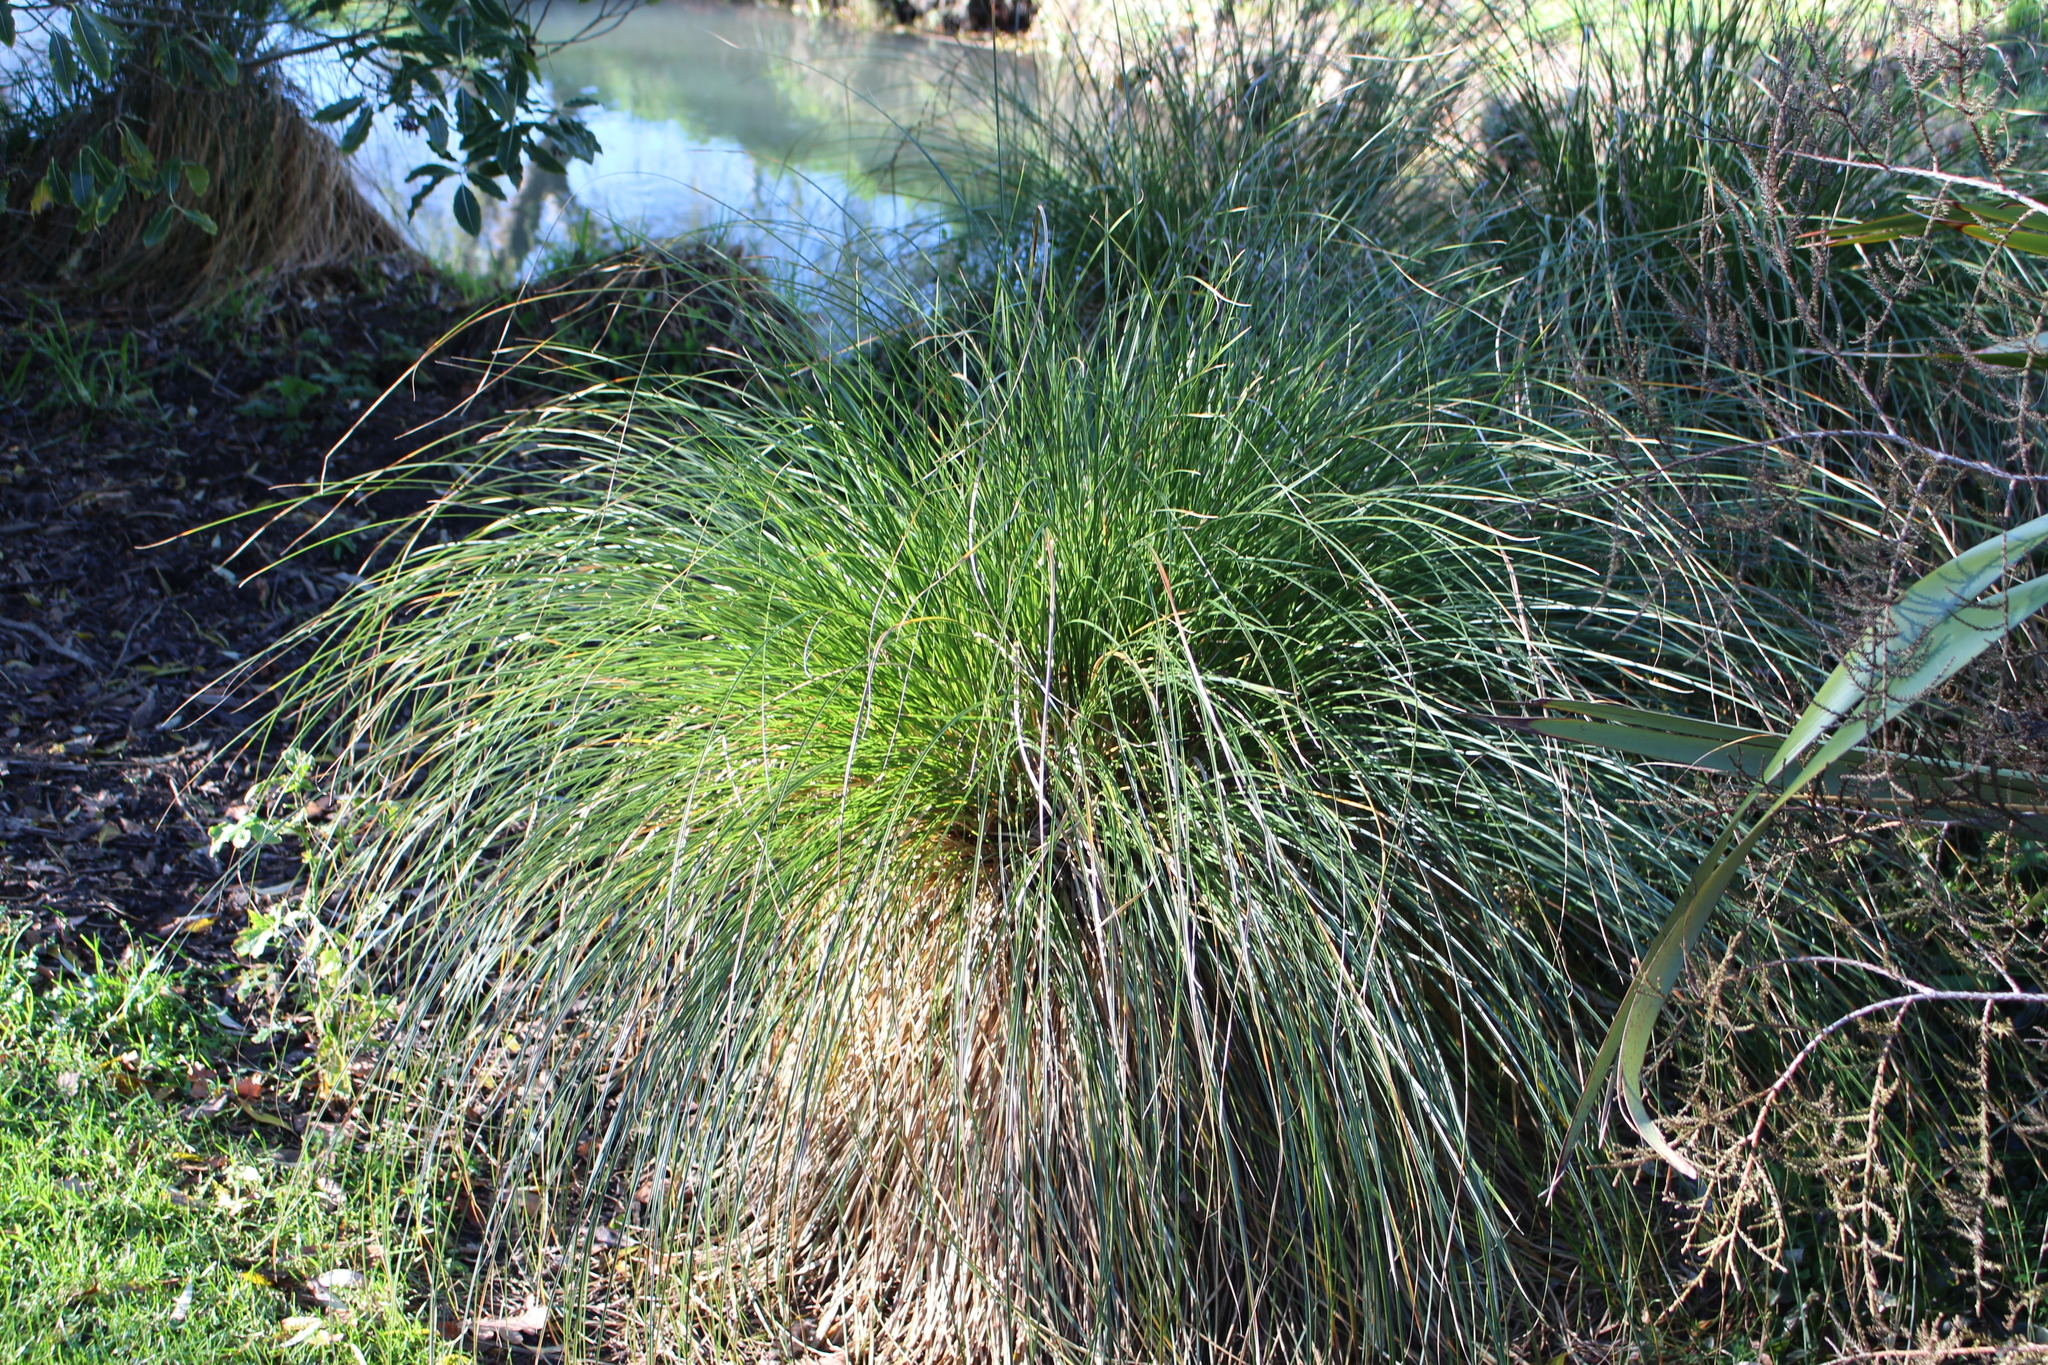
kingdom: Plantae
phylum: Tracheophyta
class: Liliopsida
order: Poales
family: Cyperaceae
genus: Carex
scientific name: Carex secta
